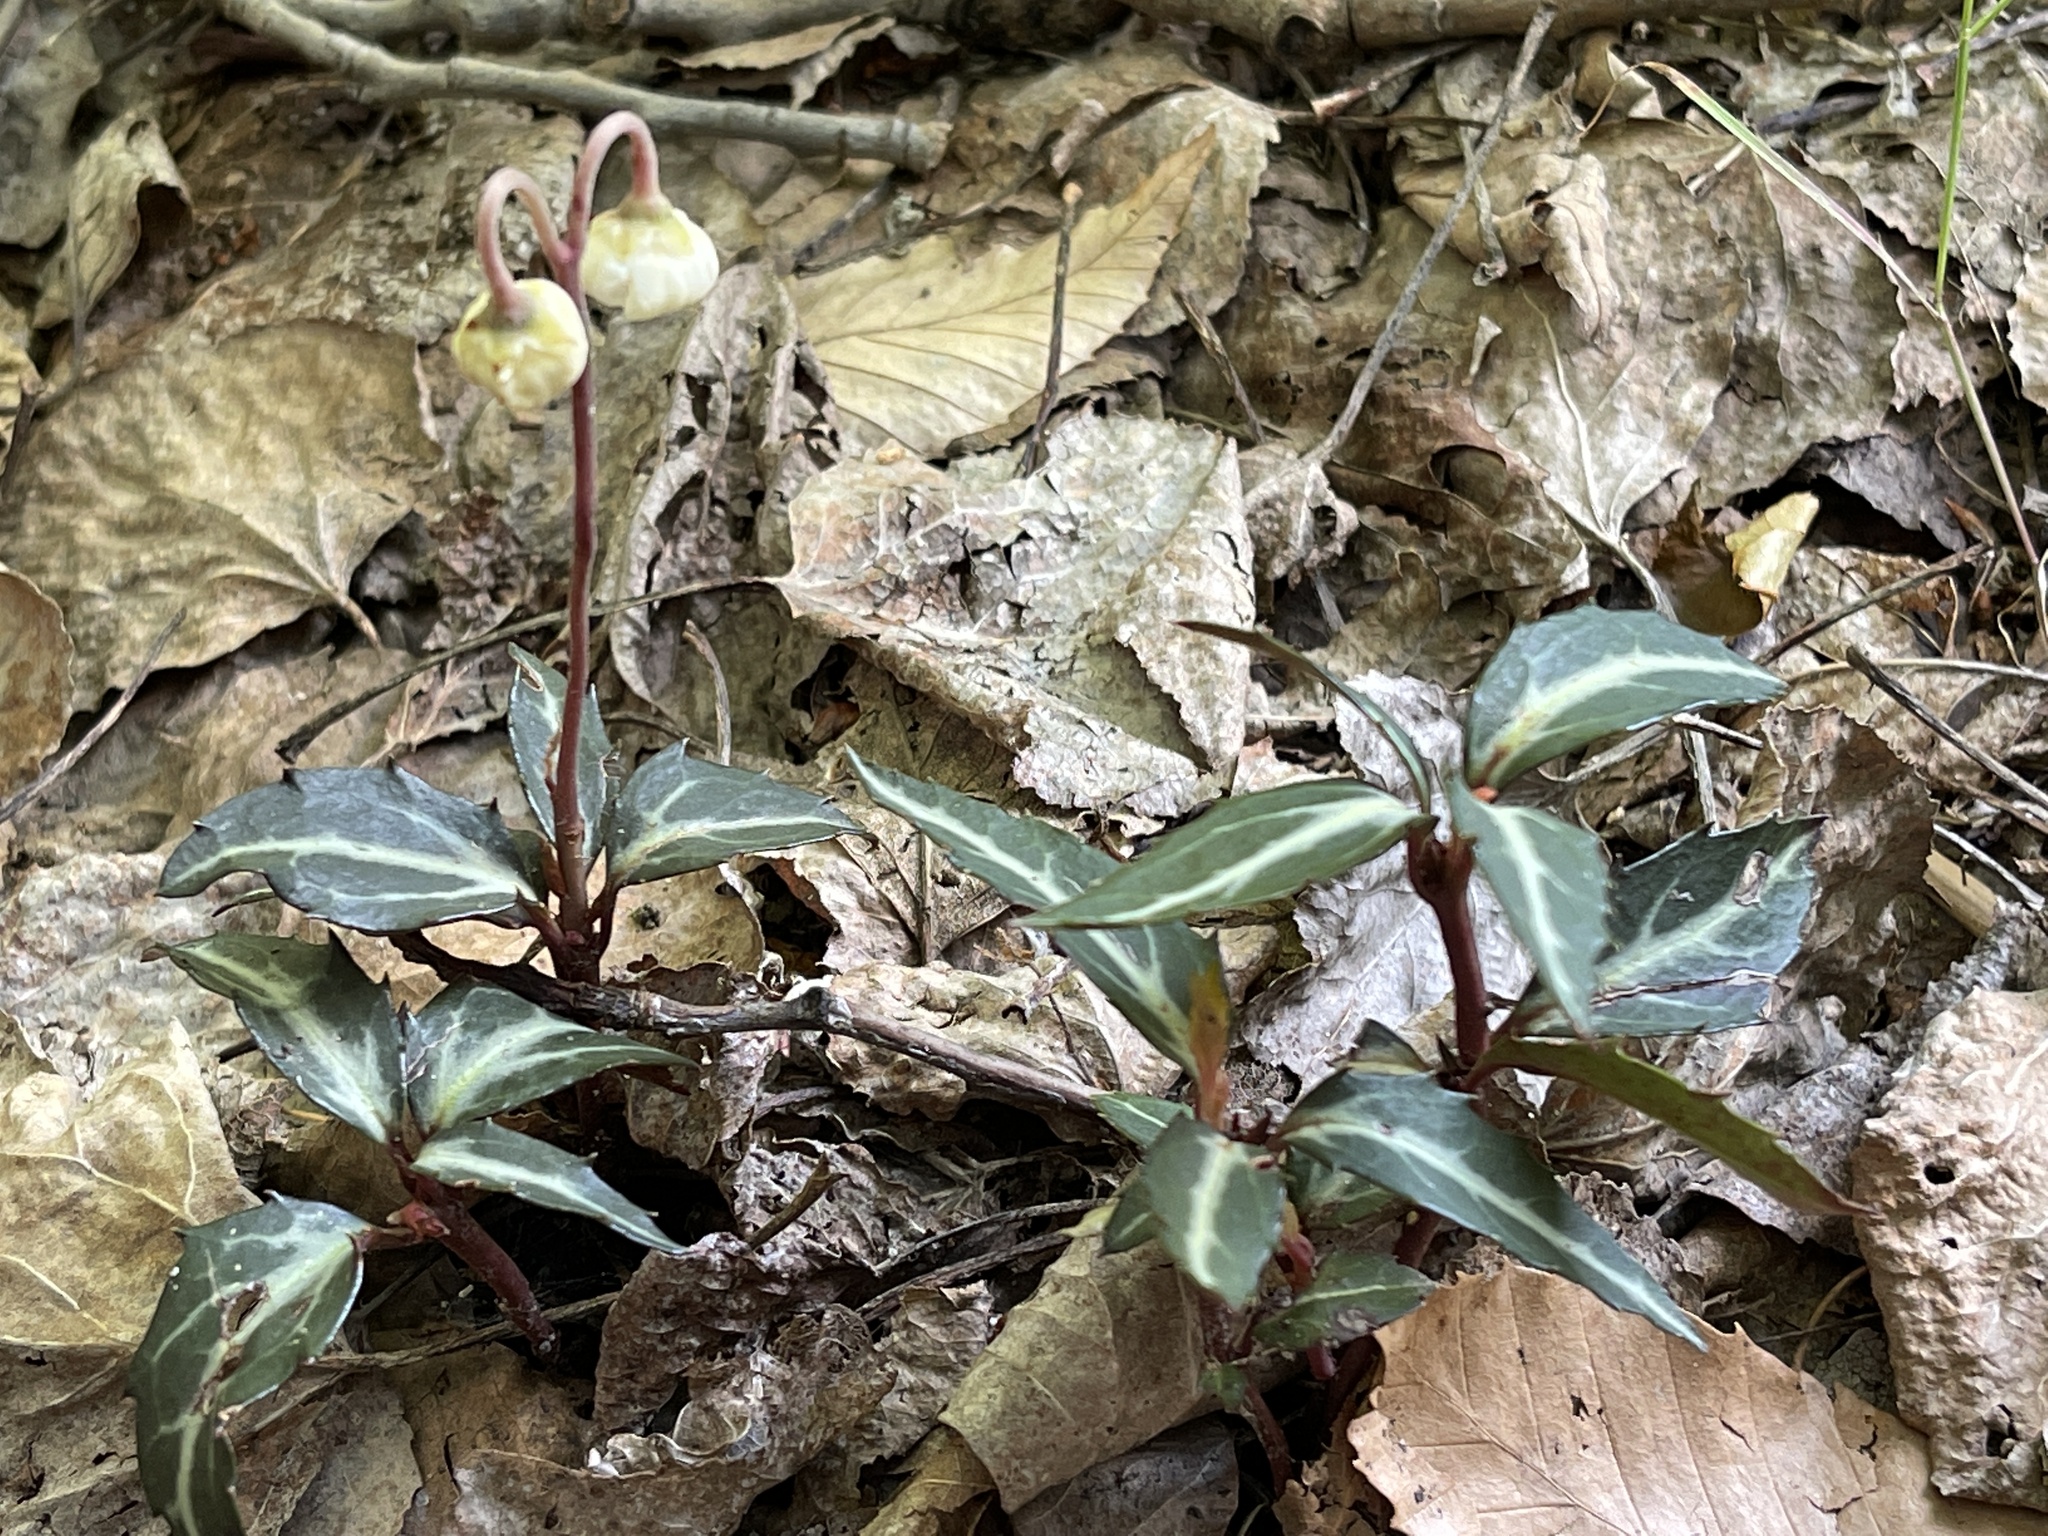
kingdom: Plantae
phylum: Tracheophyta
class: Magnoliopsida
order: Ericales
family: Ericaceae
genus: Chimaphila
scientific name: Chimaphila maculata
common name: Spotted pipsissewa
